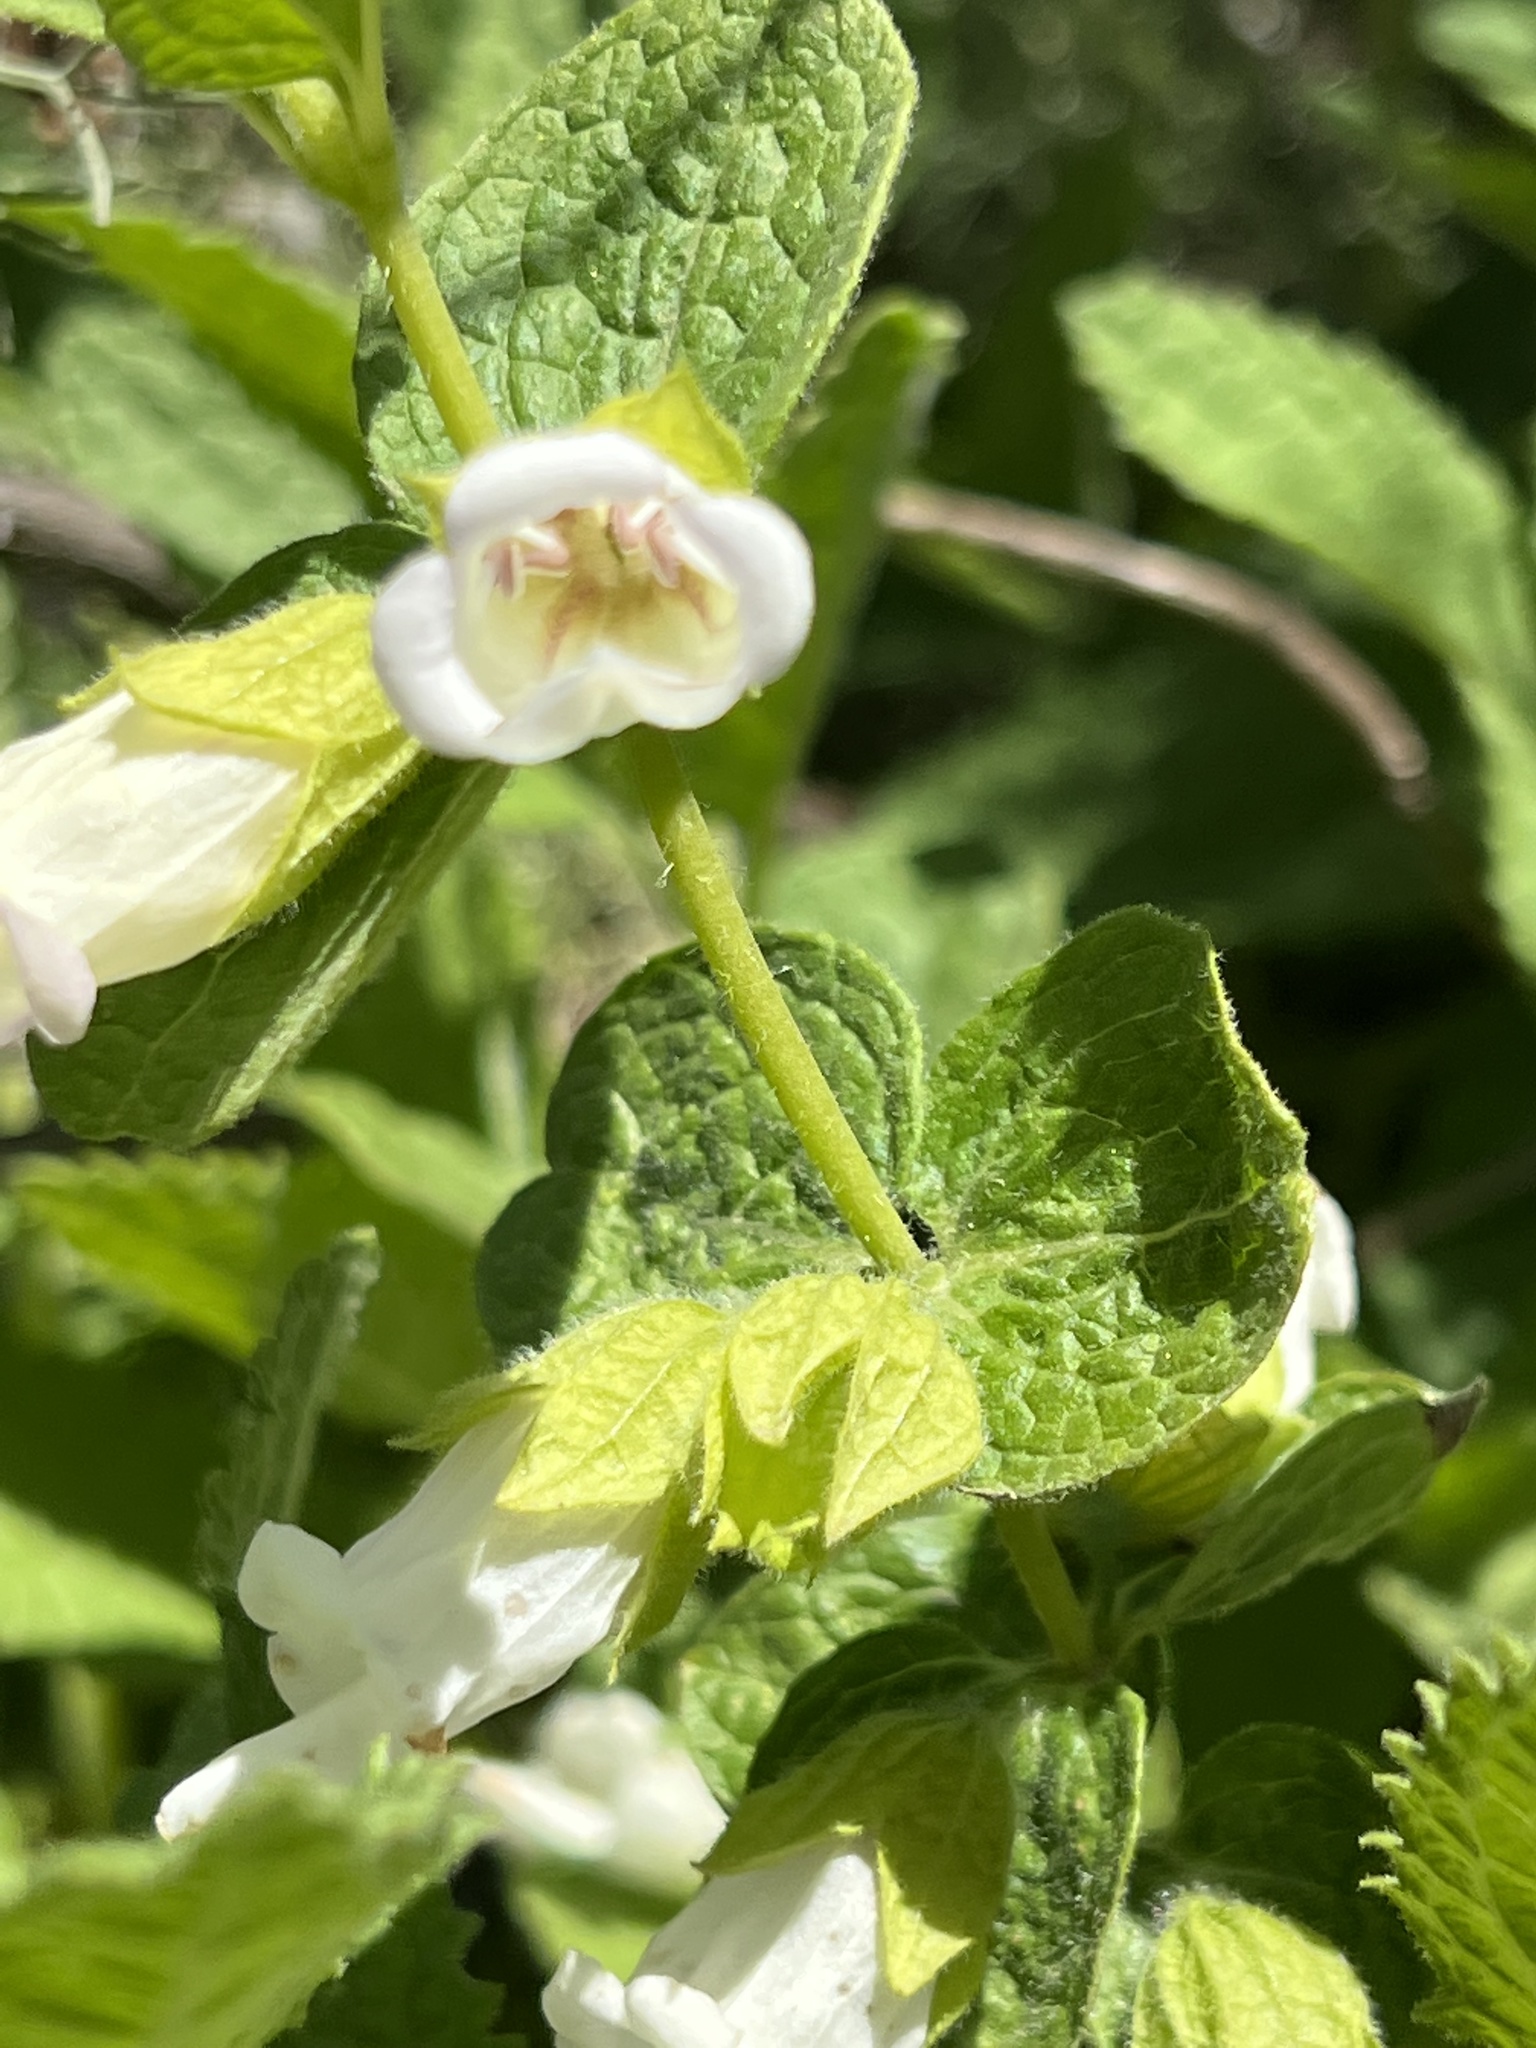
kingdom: Plantae
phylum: Tracheophyta
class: Magnoliopsida
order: Lamiales
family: Lamiaceae
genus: Lepechinia
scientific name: Lepechinia calycina
